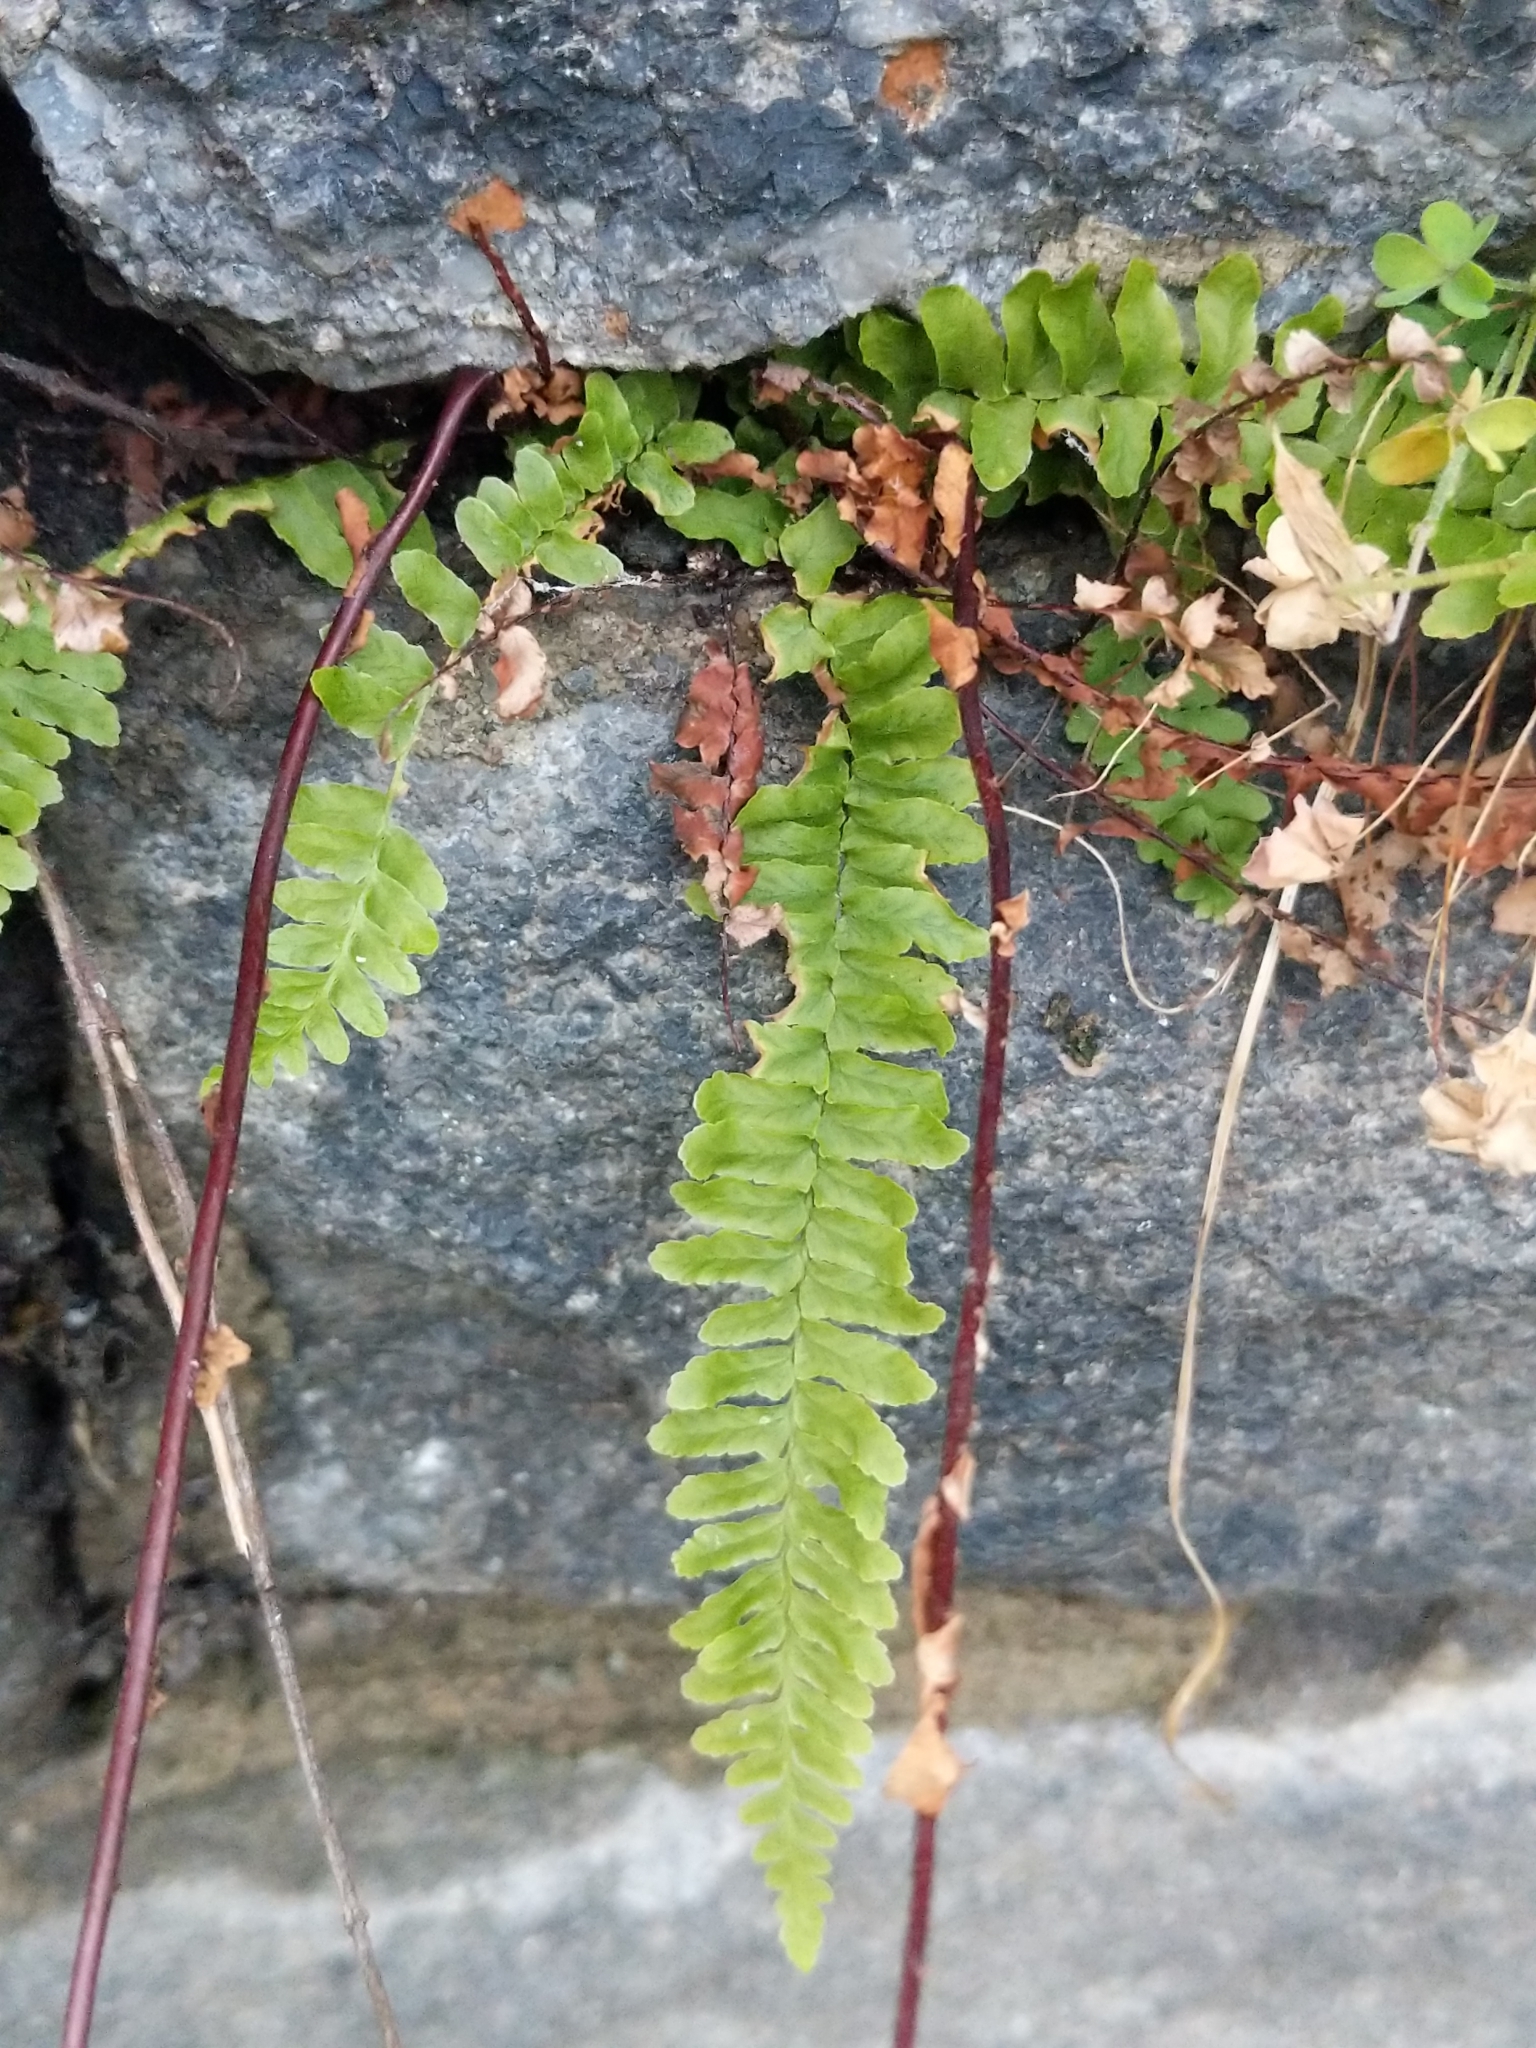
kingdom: Plantae
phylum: Tracheophyta
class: Polypodiopsida
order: Polypodiales
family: Aspleniaceae
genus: Asplenium
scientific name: Asplenium platyneuron
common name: Ebony spleenwort
